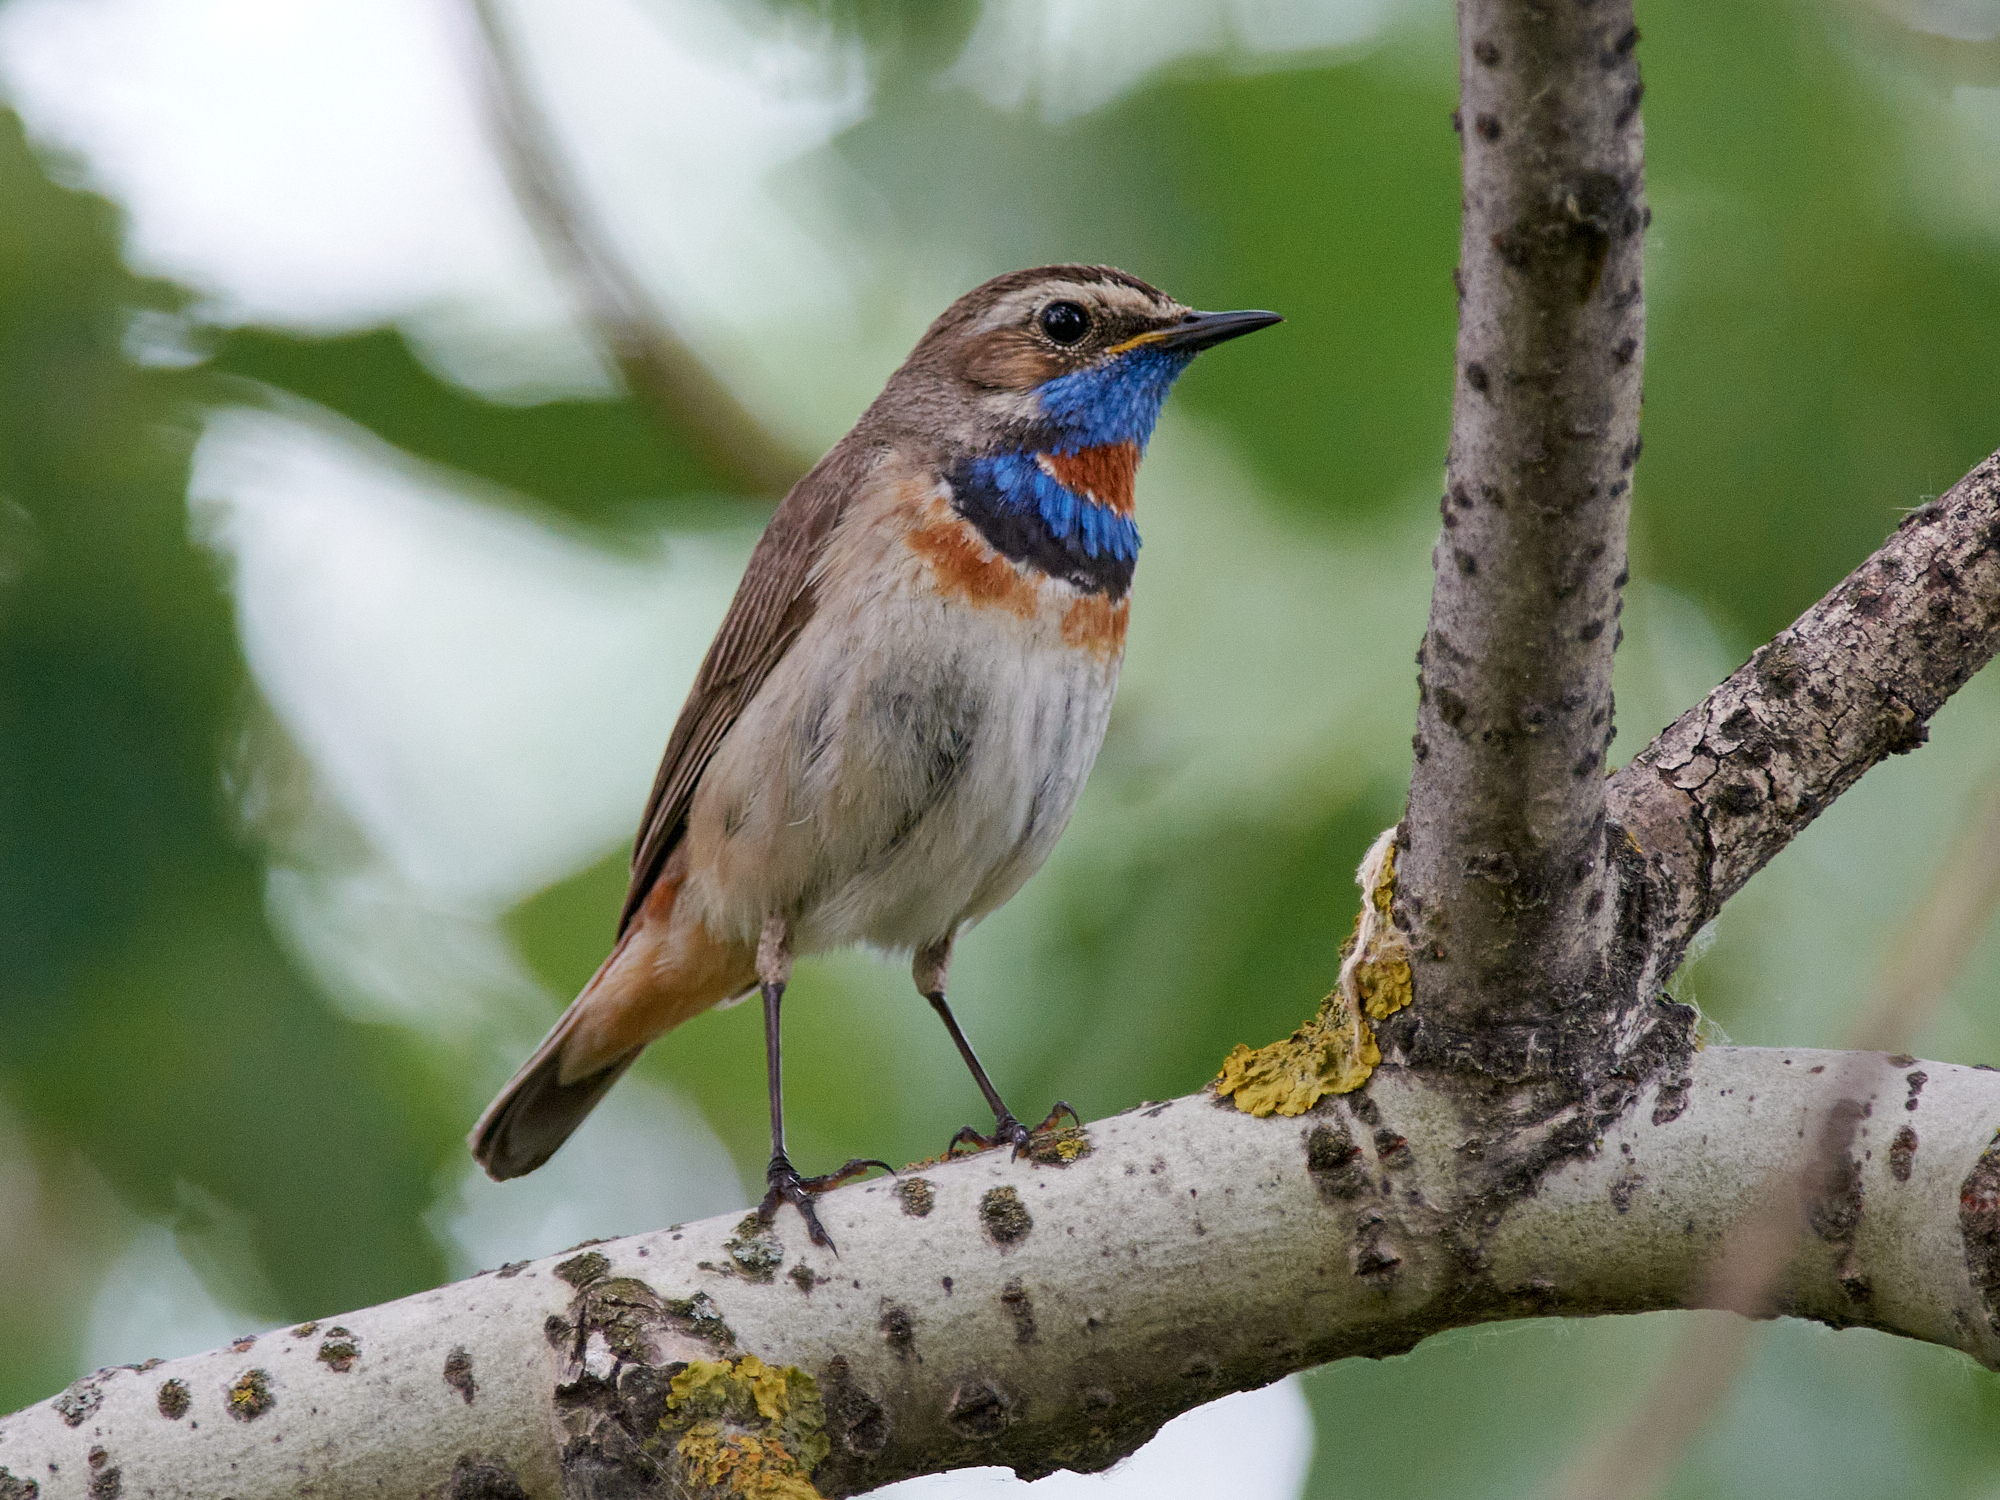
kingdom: Animalia
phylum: Chordata
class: Aves
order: Passeriformes
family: Muscicapidae
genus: Luscinia
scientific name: Luscinia svecica
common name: Bluethroat
